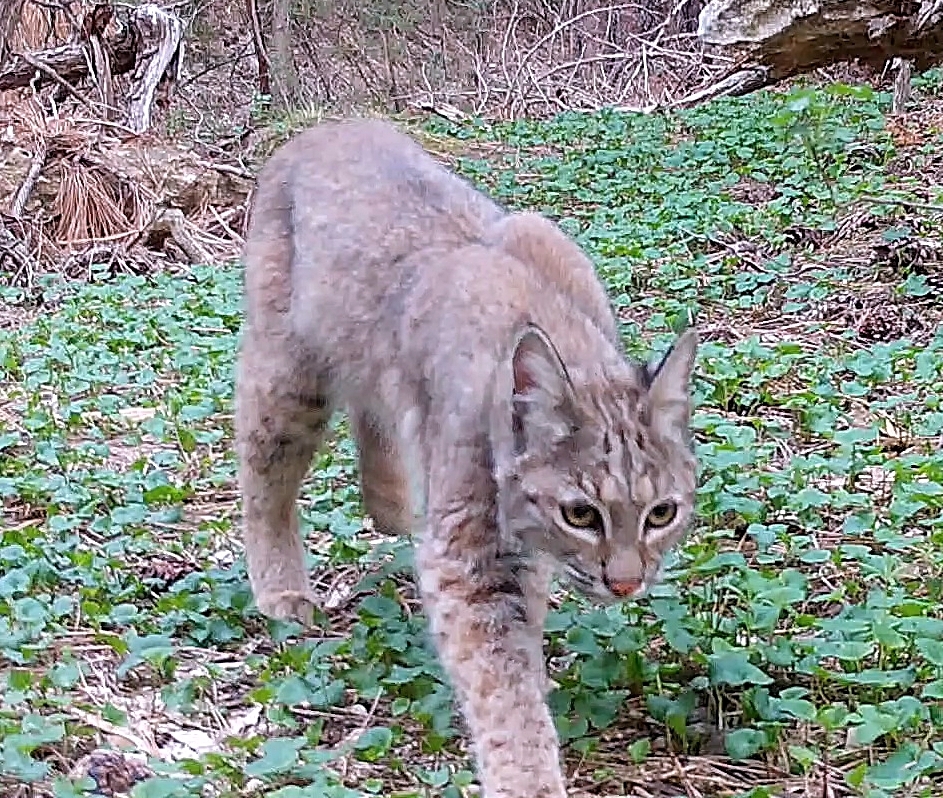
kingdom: Animalia
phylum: Chordata
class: Mammalia
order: Carnivora
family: Felidae
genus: Lynx
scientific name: Lynx rufus
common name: Bobcat
